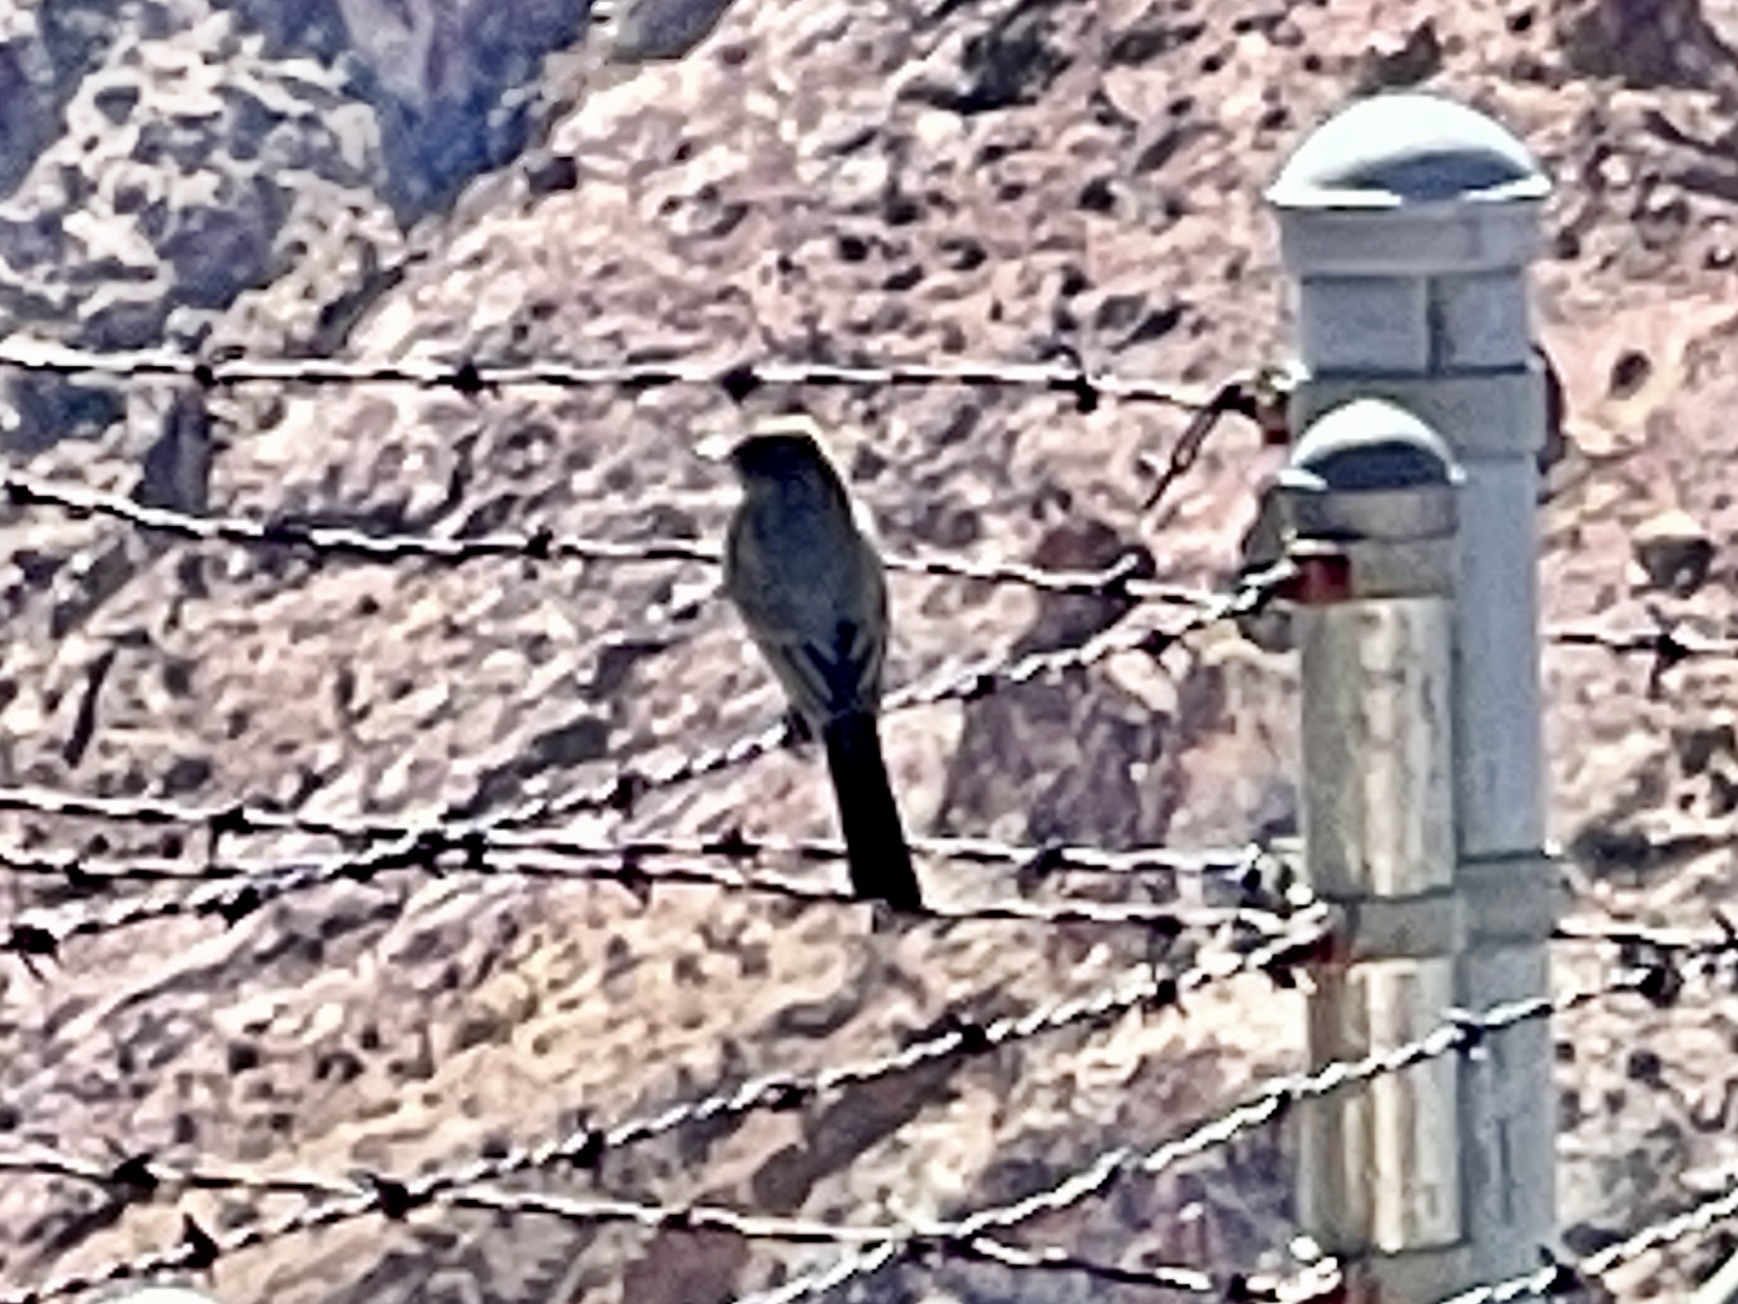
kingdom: Animalia
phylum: Chordata
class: Aves
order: Passeriformes
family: Tyrannidae
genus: Sayornis
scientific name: Sayornis saya
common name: Say's phoebe
